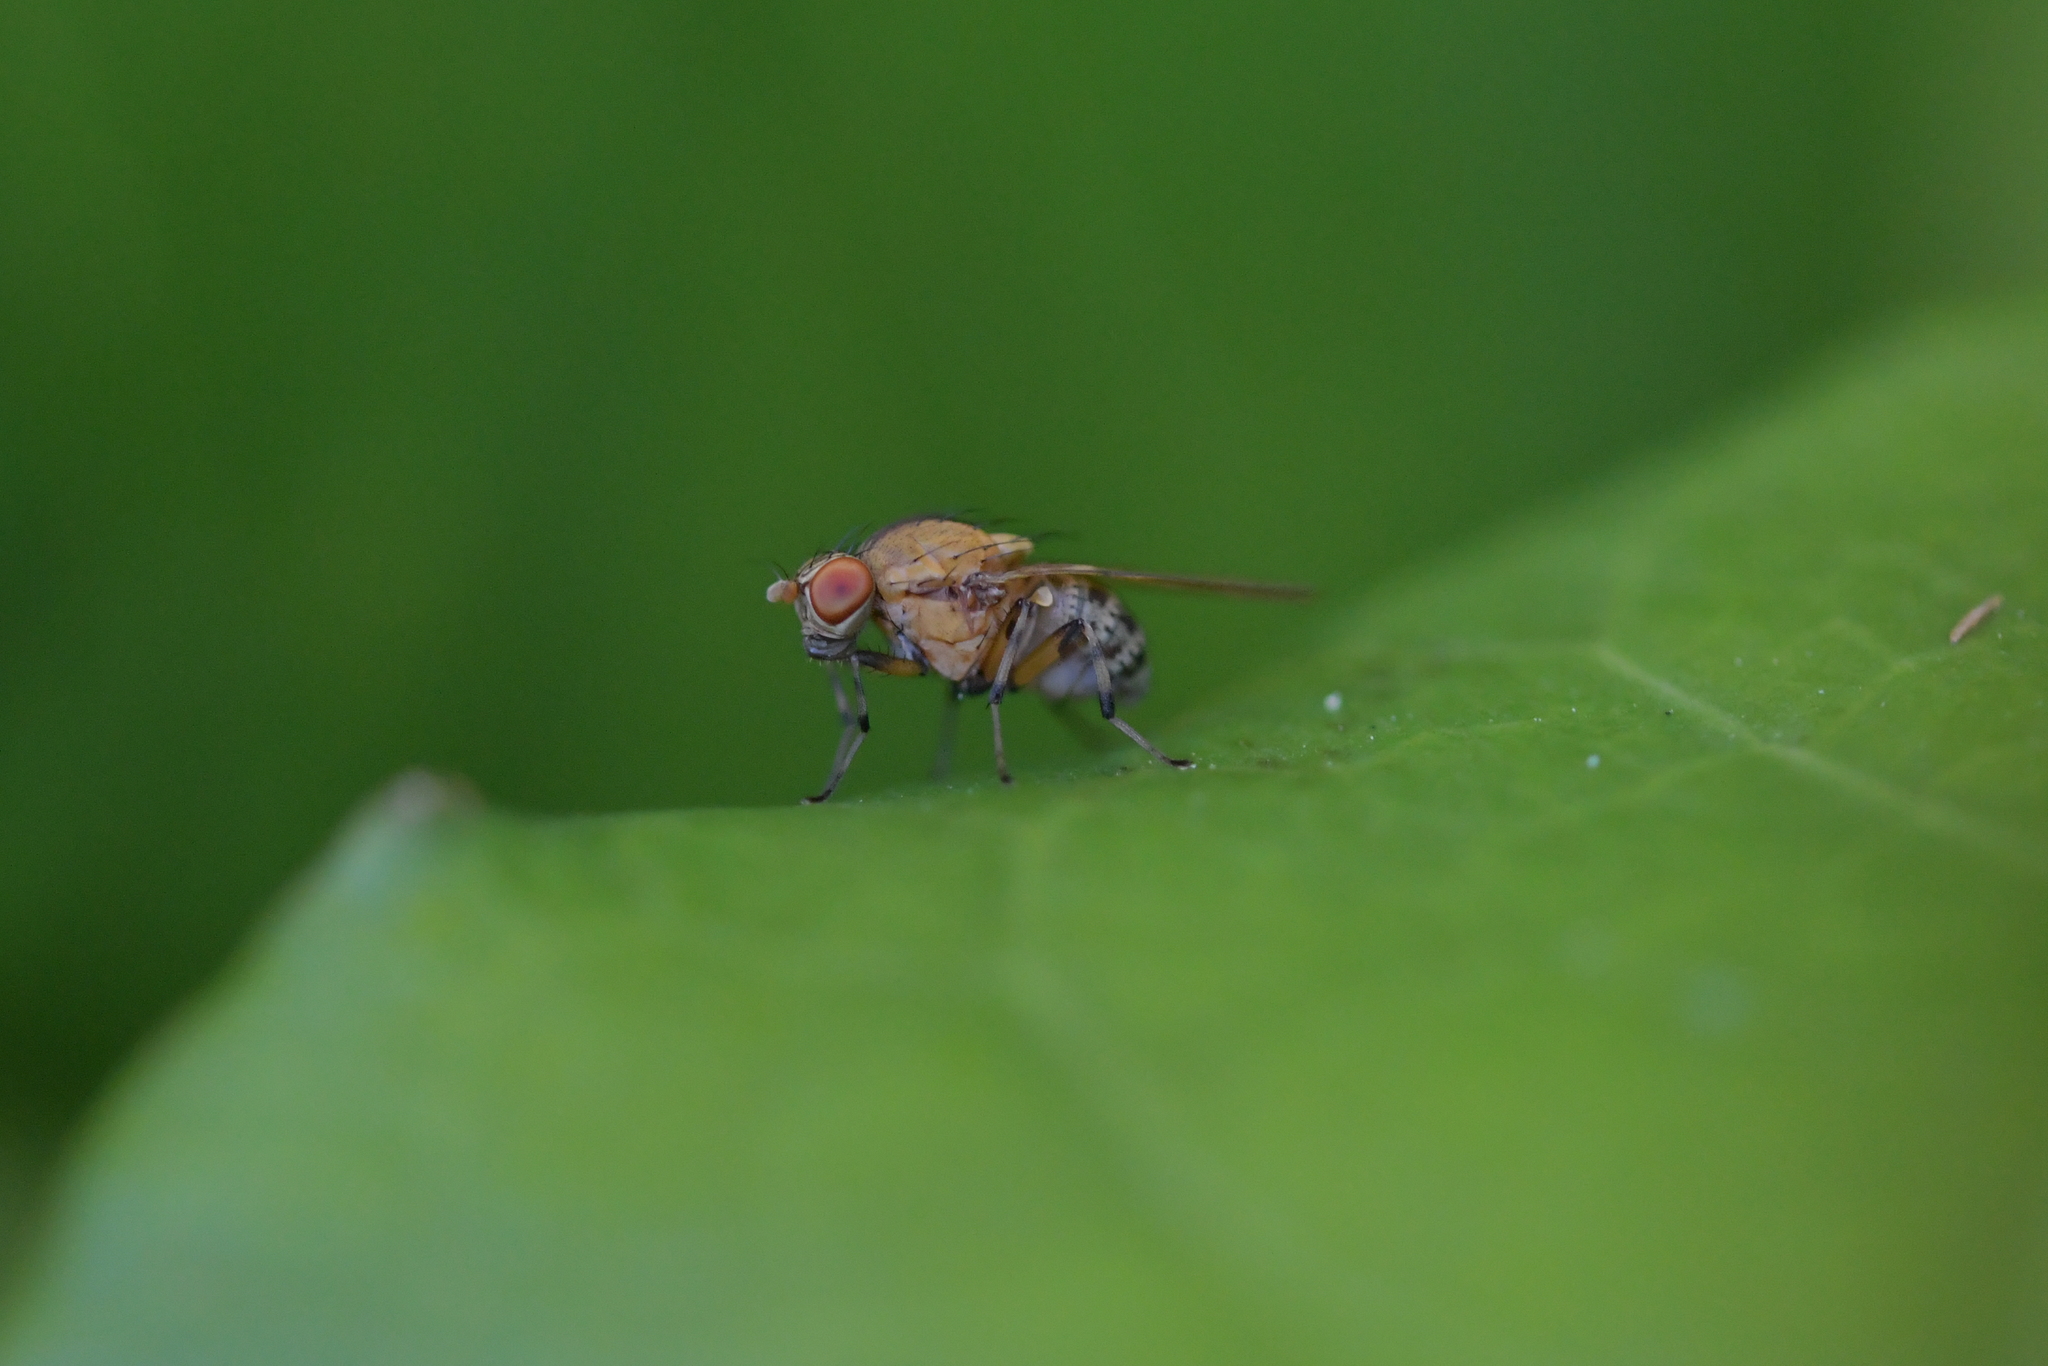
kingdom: Animalia
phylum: Arthropoda
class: Insecta
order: Diptera
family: Lauxaniidae
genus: Sapromyza
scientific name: Sapromyza neozelandica
